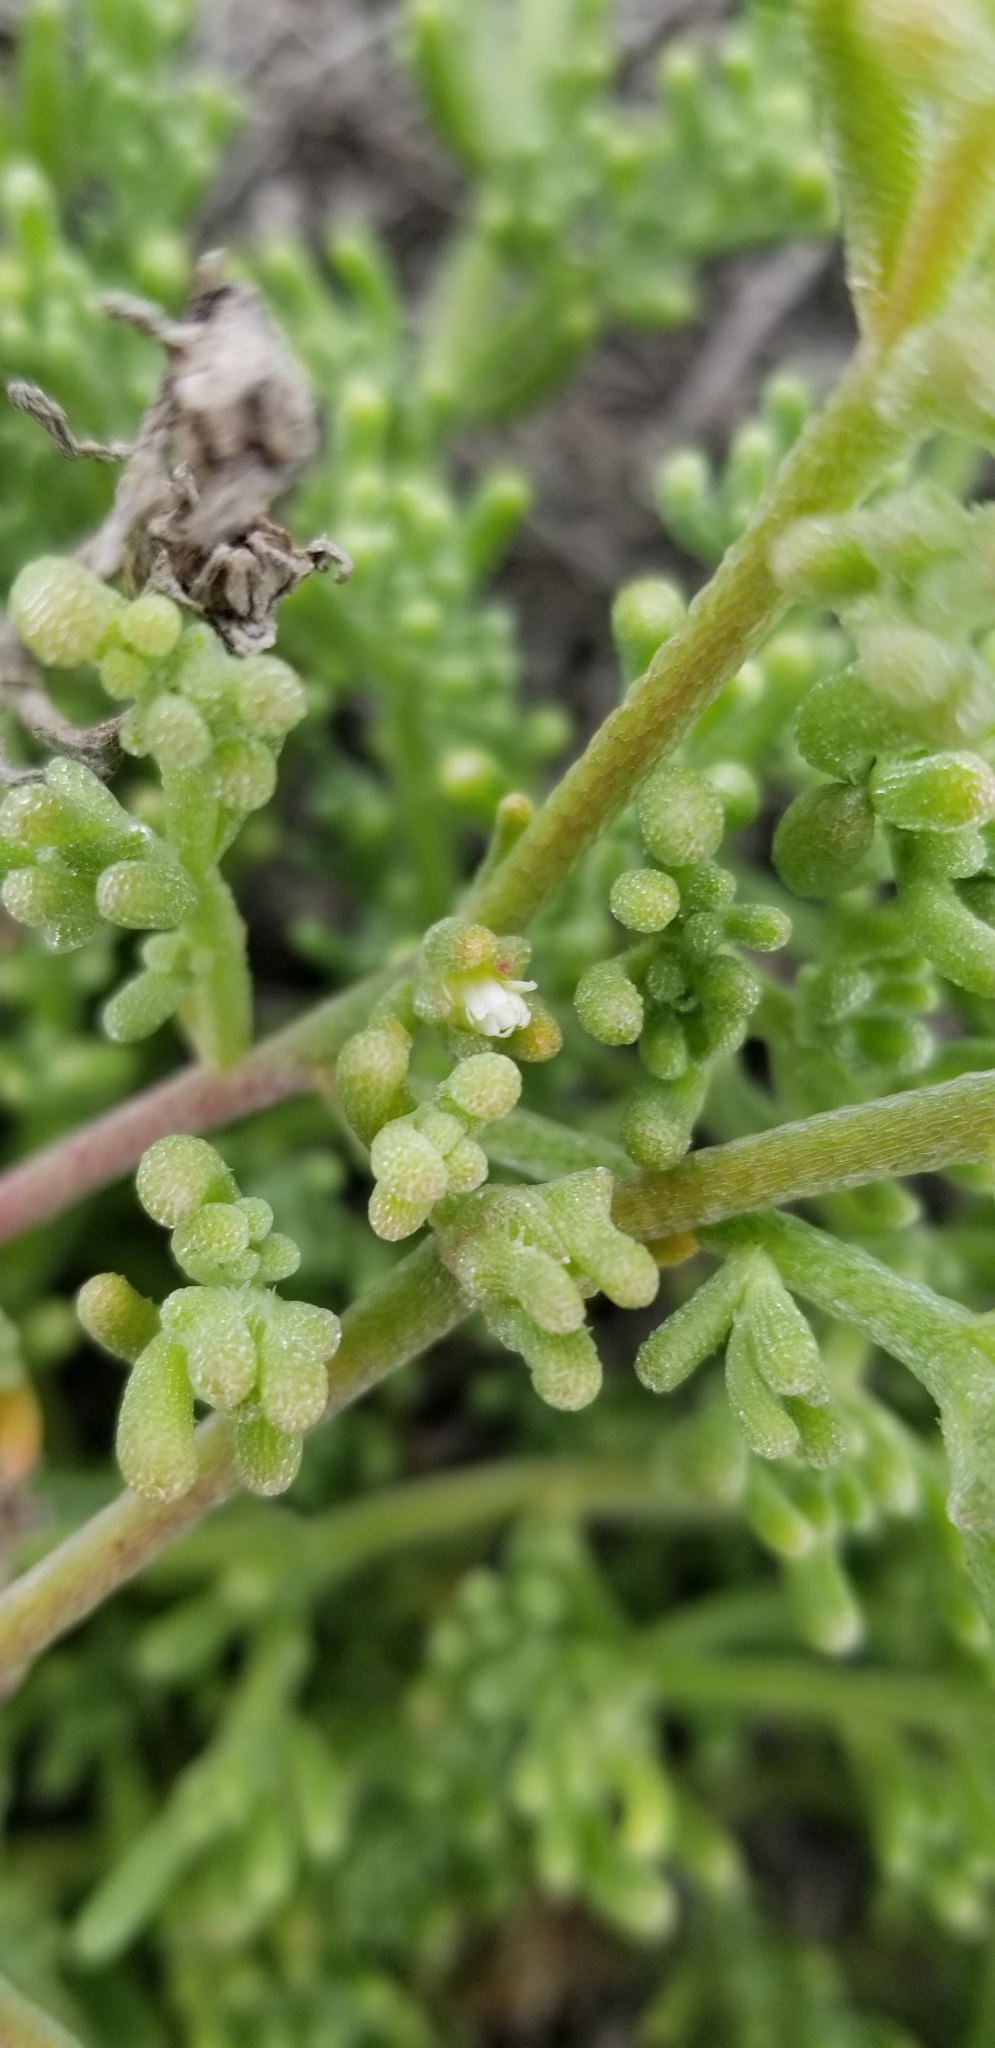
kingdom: Plantae
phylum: Tracheophyta
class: Magnoliopsida
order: Caryophyllales
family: Aizoaceae
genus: Mesembryanthemum
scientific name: Mesembryanthemum nodiflorum
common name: Slenderleaf iceplant
